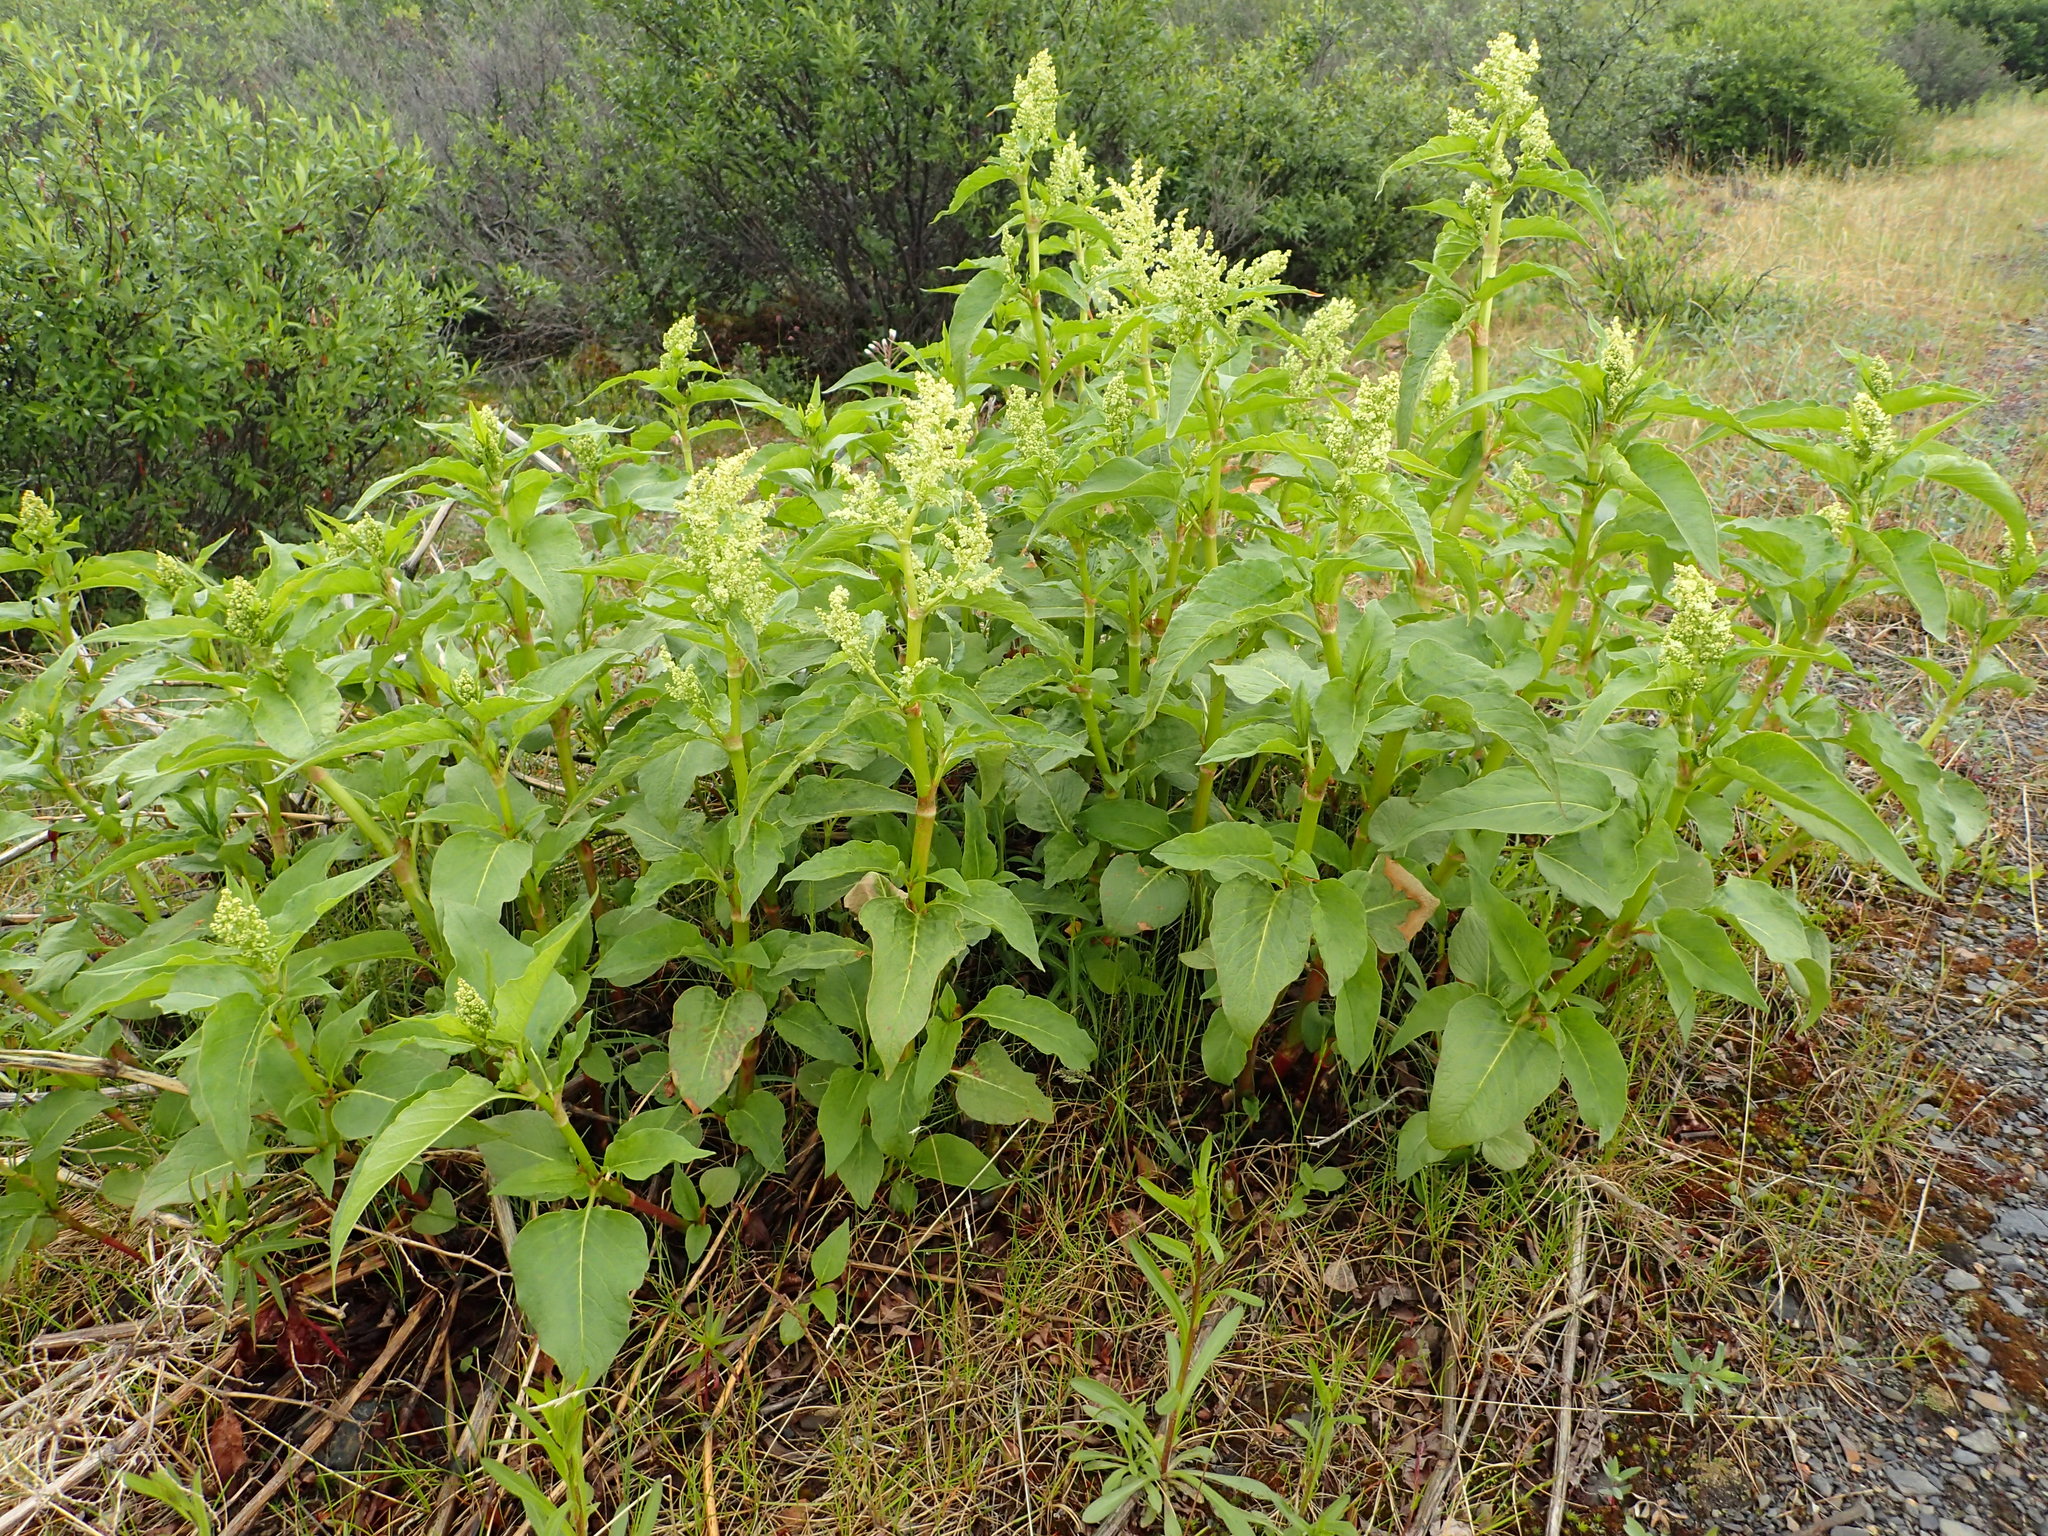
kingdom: Plantae
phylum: Tracheophyta
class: Magnoliopsida
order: Caryophyllales
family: Polygonaceae
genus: Koenigia
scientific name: Koenigia lapathifolia
